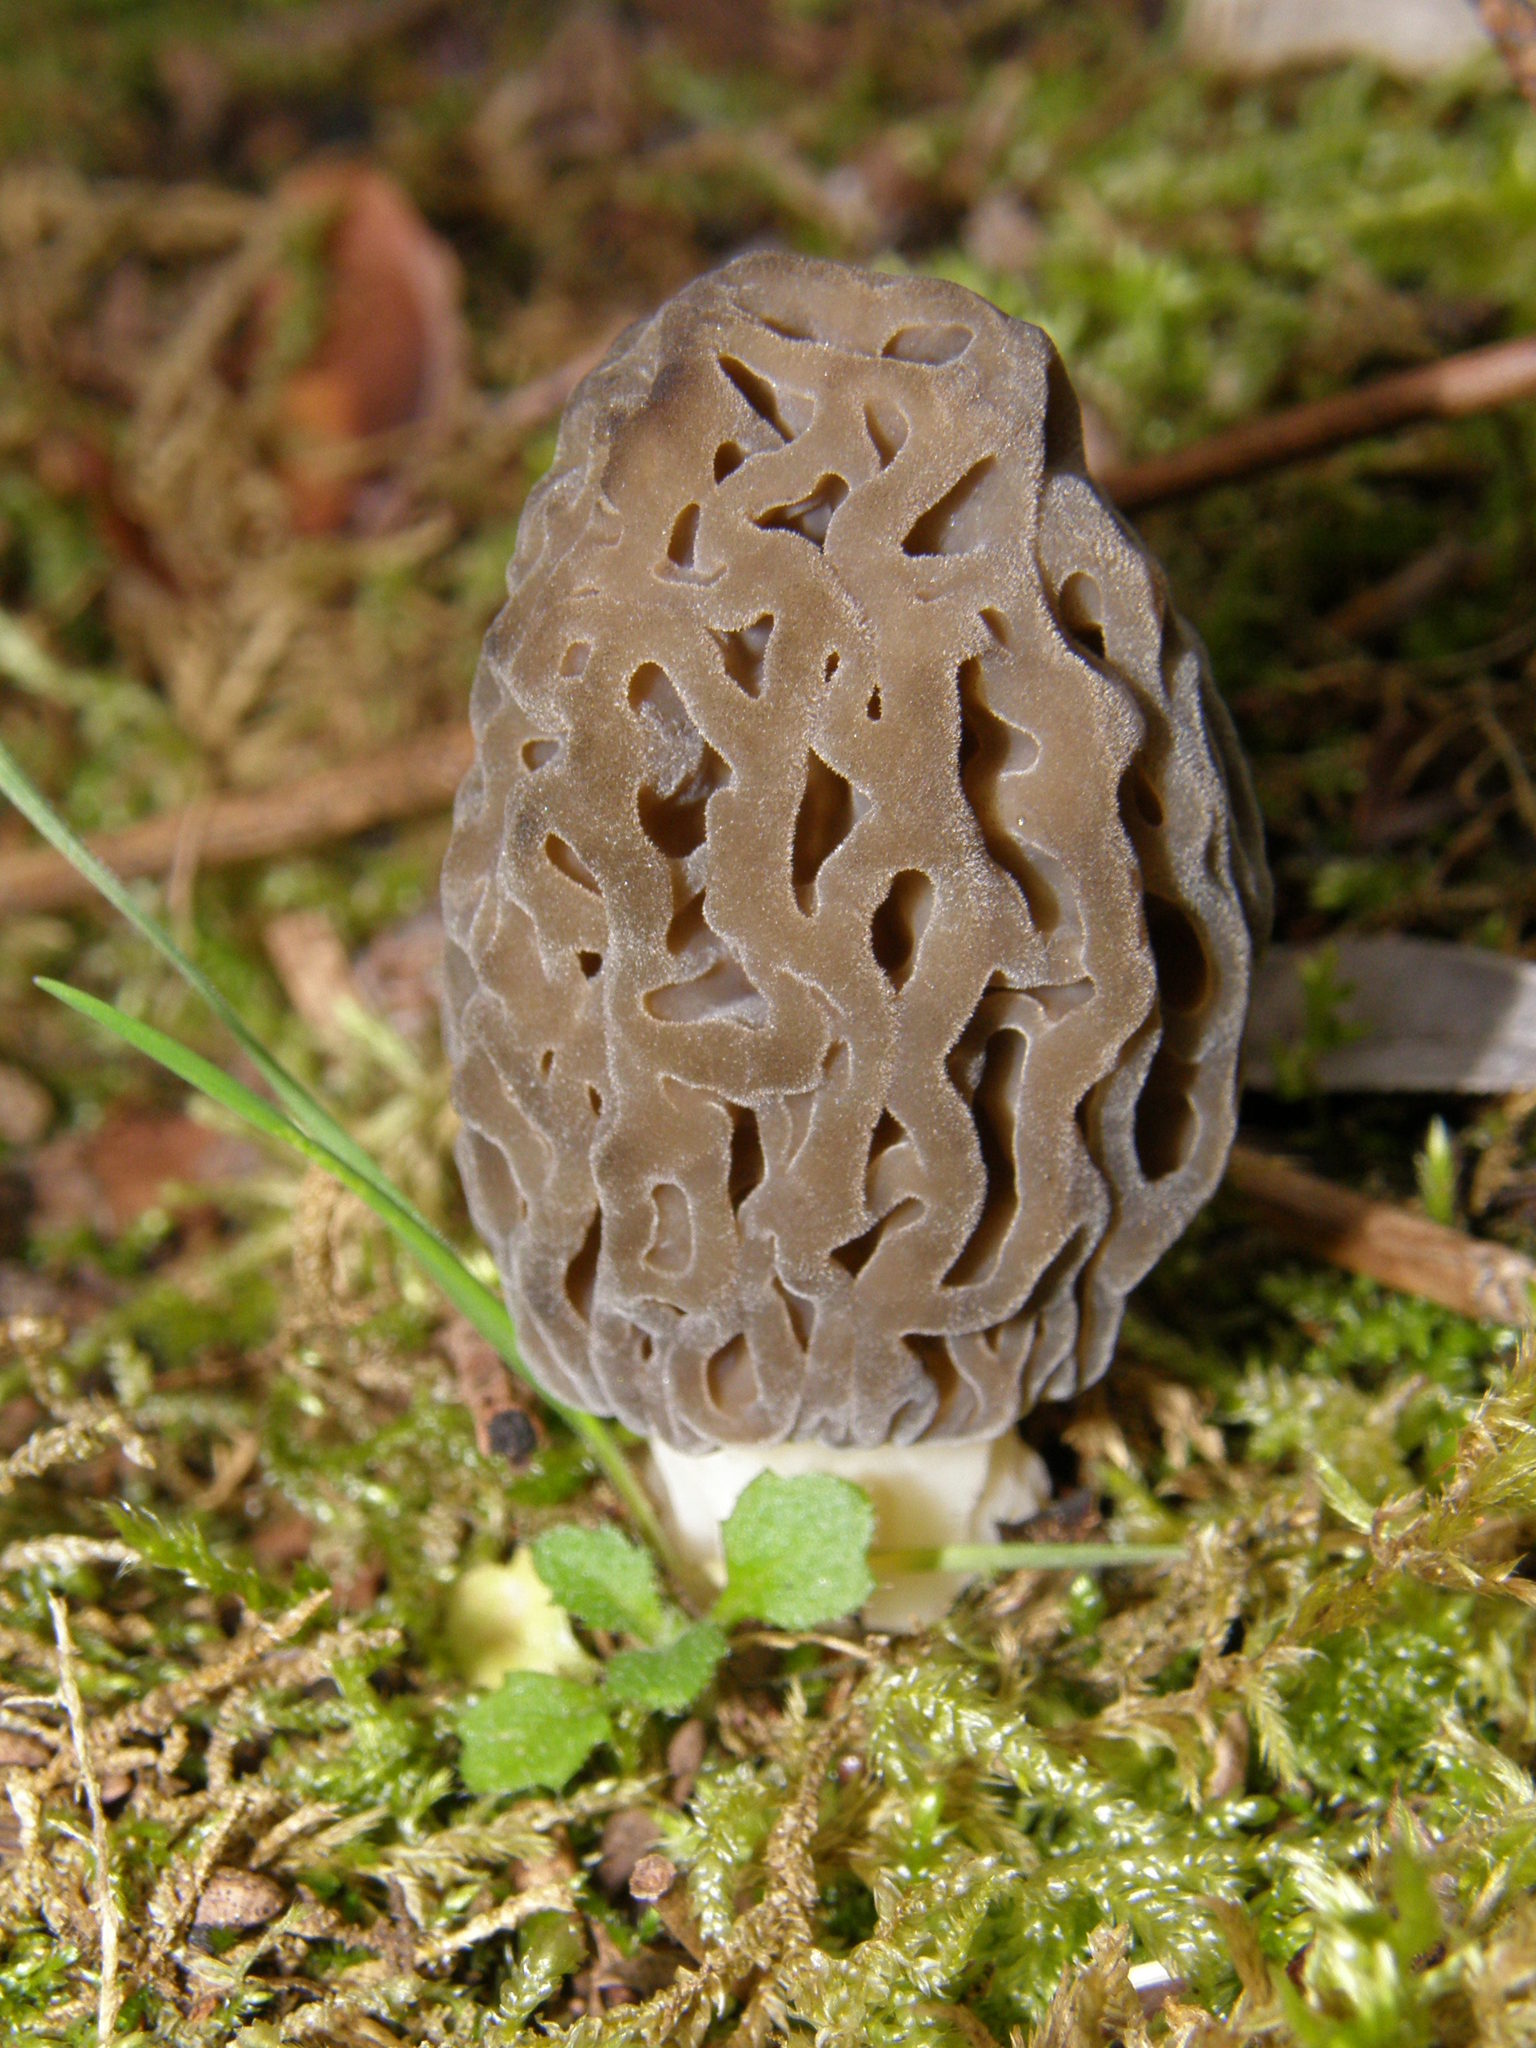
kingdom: Fungi
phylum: Ascomycota
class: Pezizomycetes
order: Pezizales
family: Morchellaceae
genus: Morchella
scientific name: Morchella mediterraneensis
